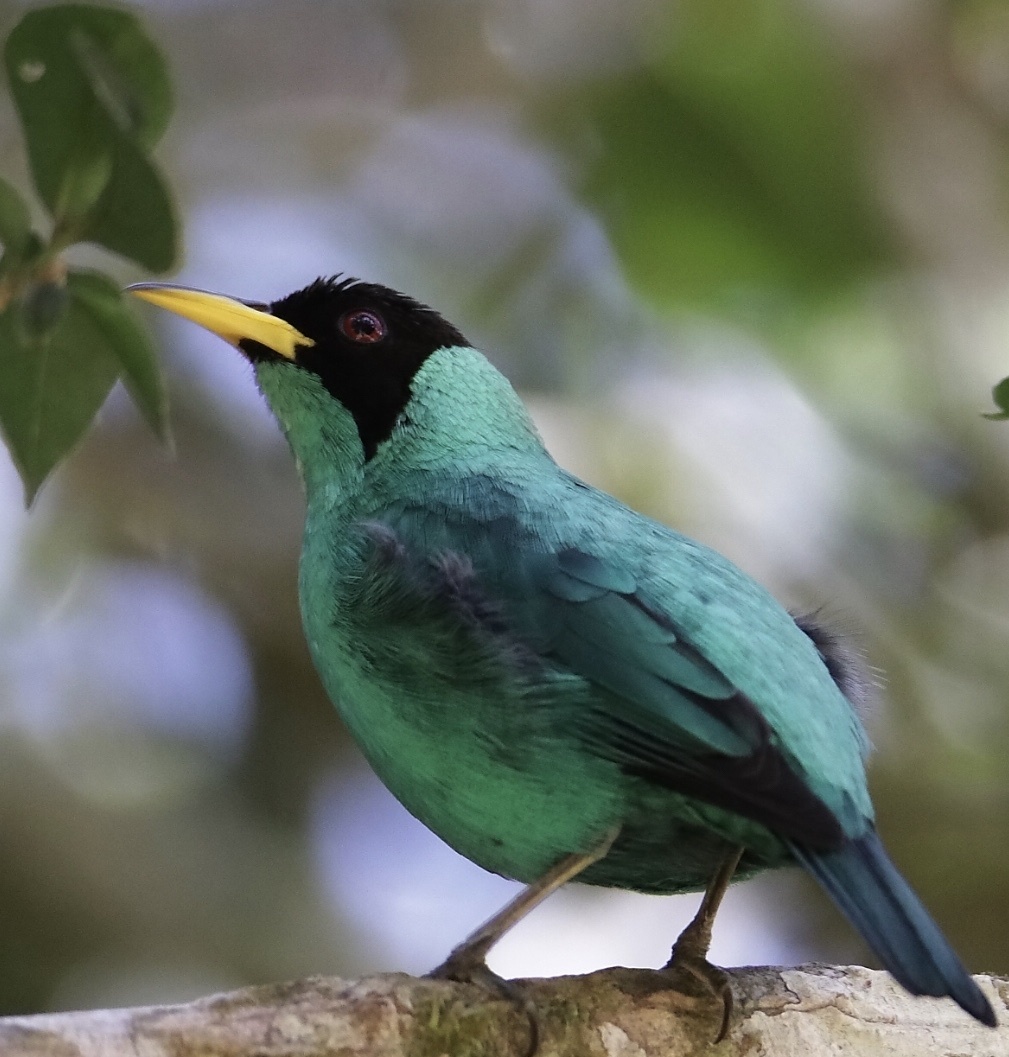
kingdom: Animalia
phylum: Chordata
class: Aves
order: Passeriformes
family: Thraupidae
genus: Chlorophanes
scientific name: Chlorophanes spiza
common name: Green honeycreeper
